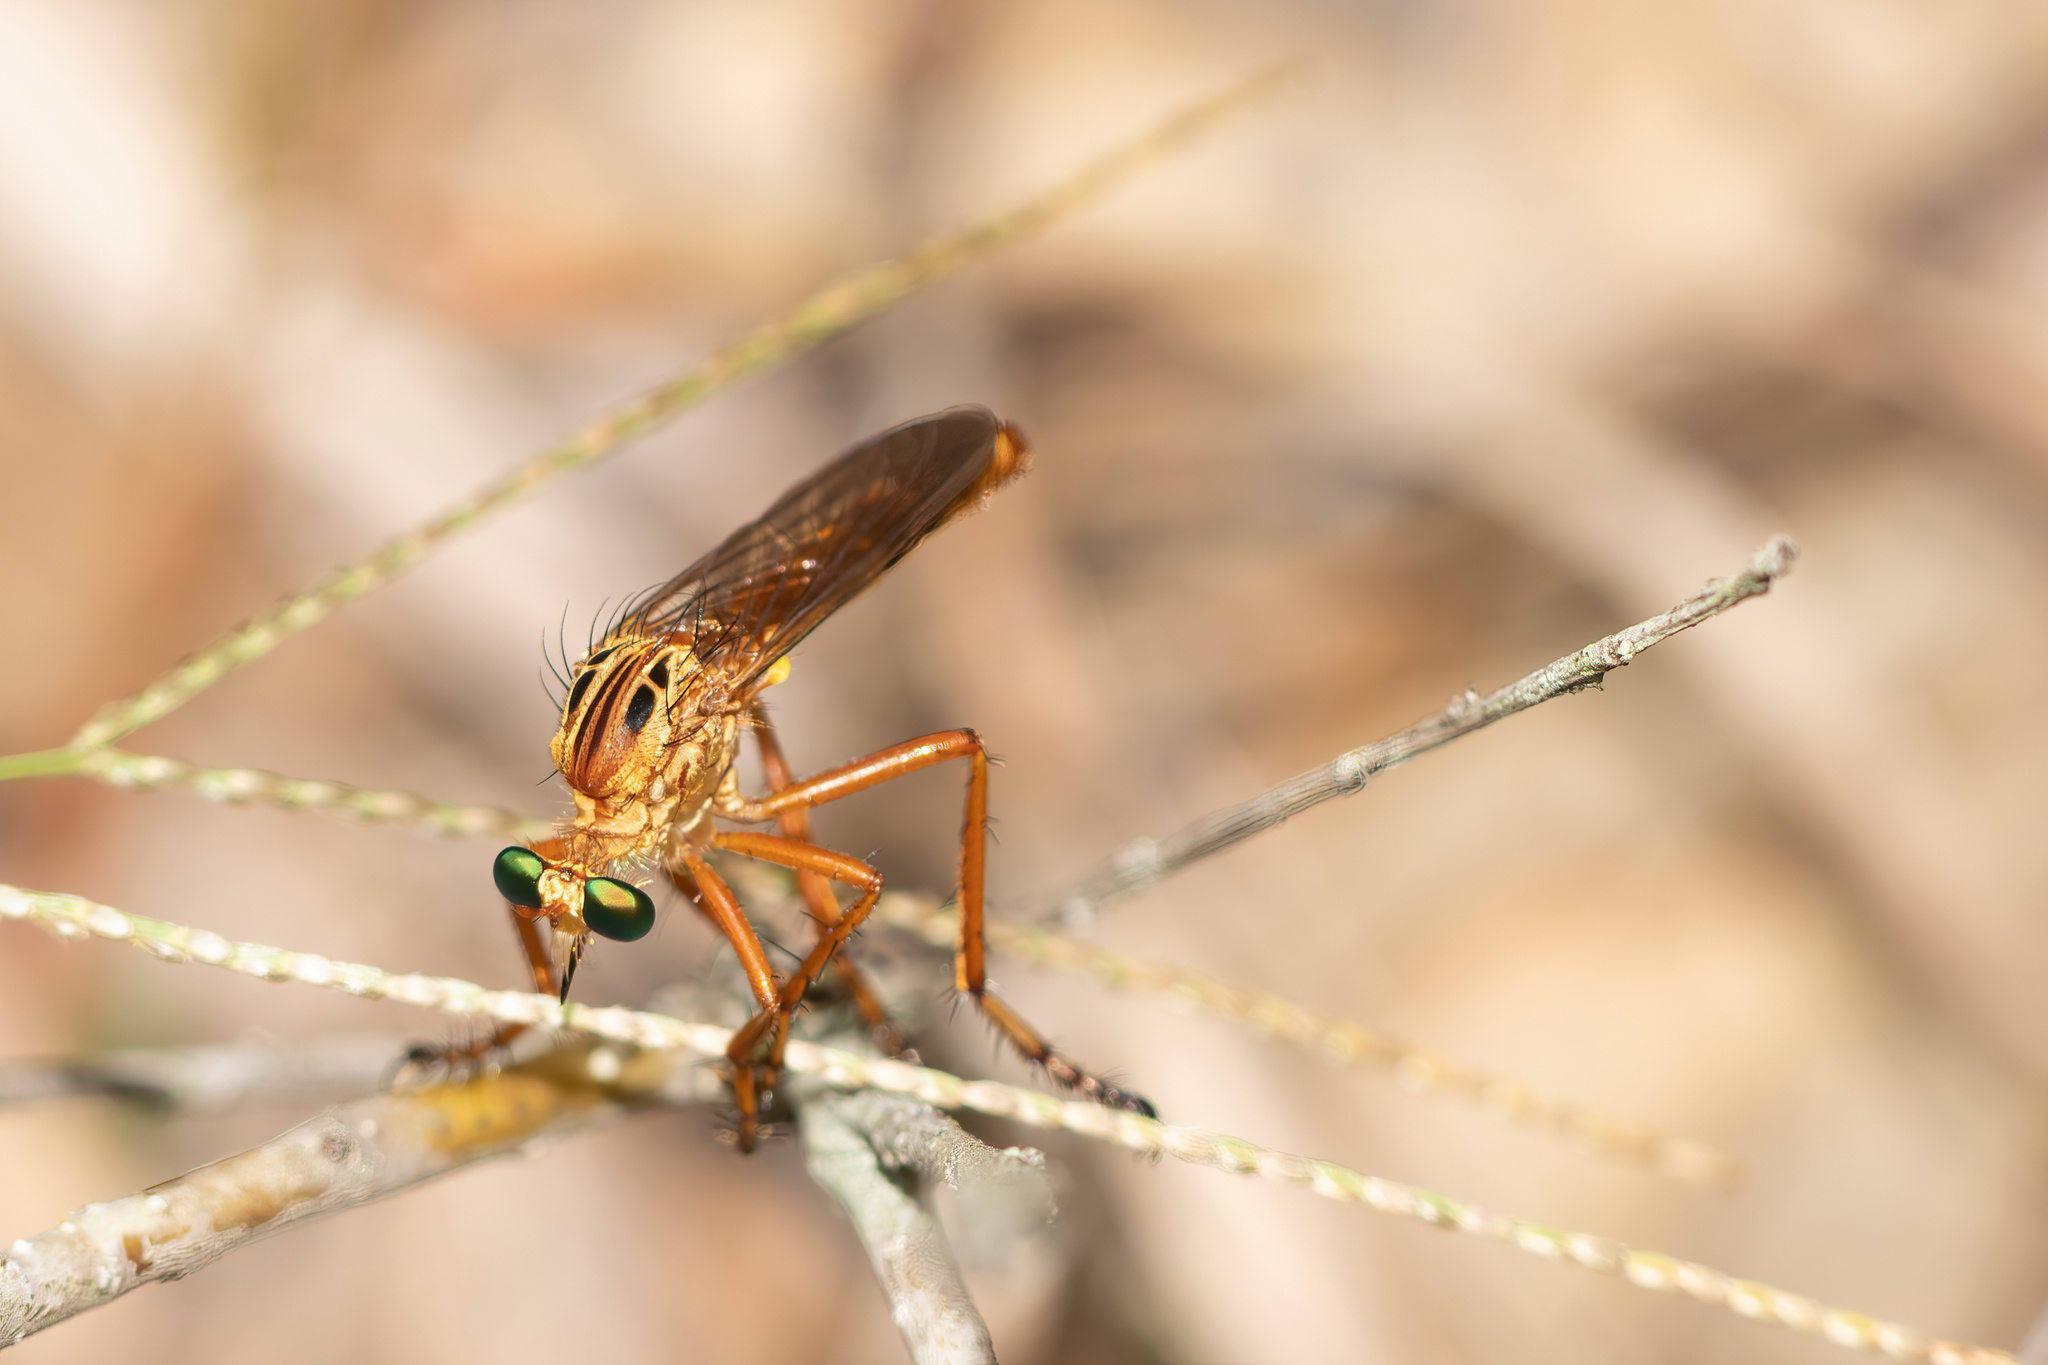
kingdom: Animalia
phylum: Arthropoda
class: Insecta
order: Diptera
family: Asilidae
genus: Diogmites
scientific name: Diogmites esuriens
